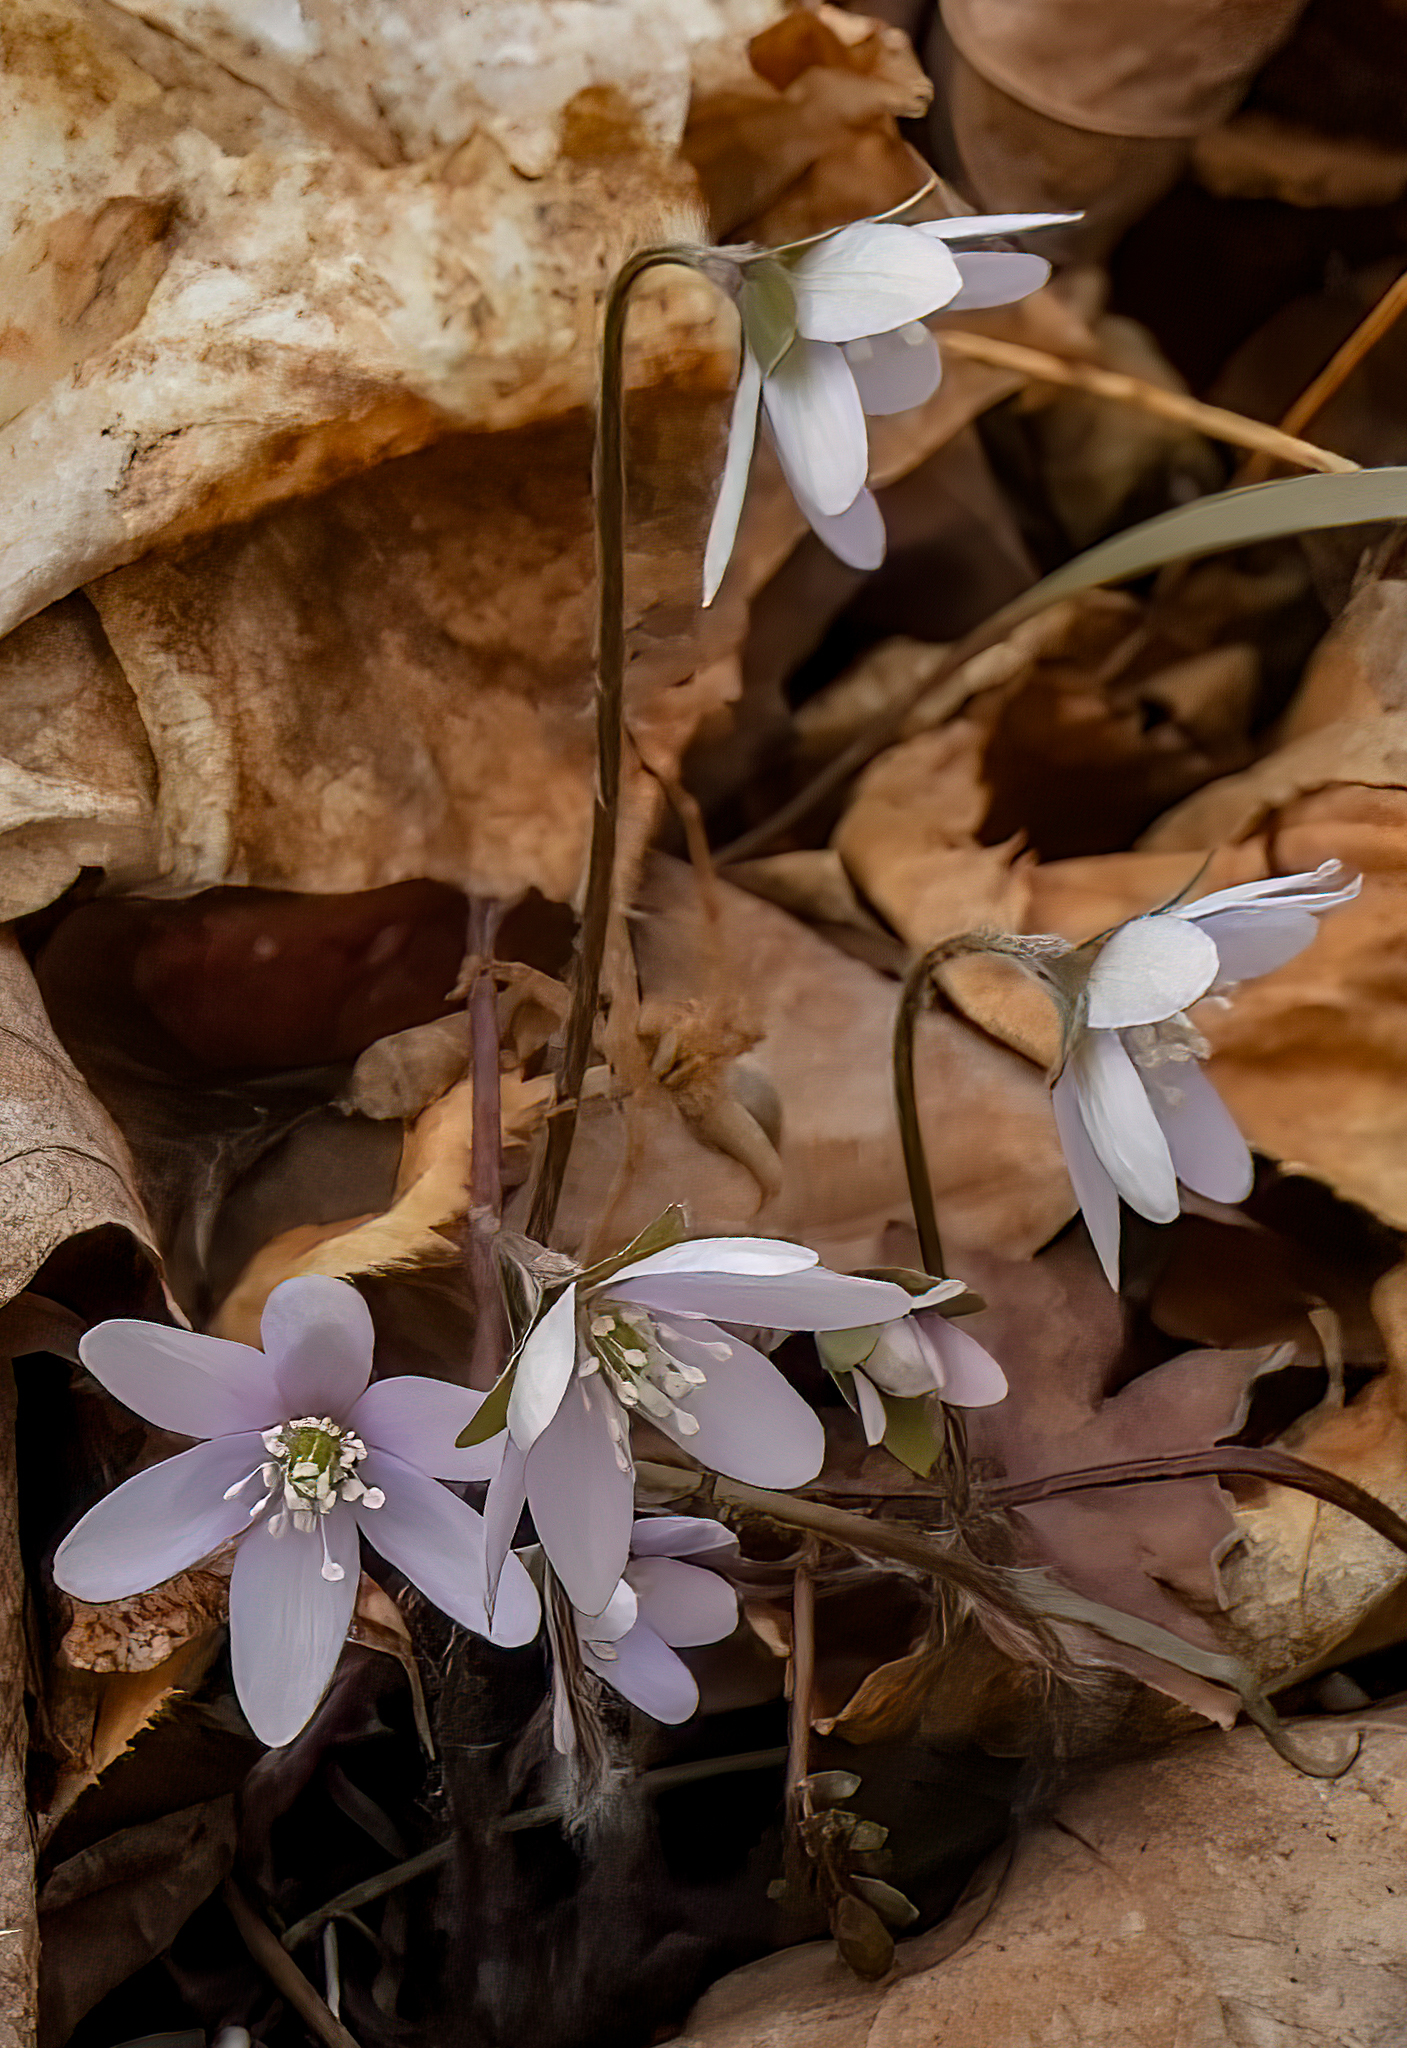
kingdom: Plantae
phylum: Tracheophyta
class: Magnoliopsida
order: Ranunculales
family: Ranunculaceae
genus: Hepatica
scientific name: Hepatica acutiloba
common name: Sharp-lobed hepatica
